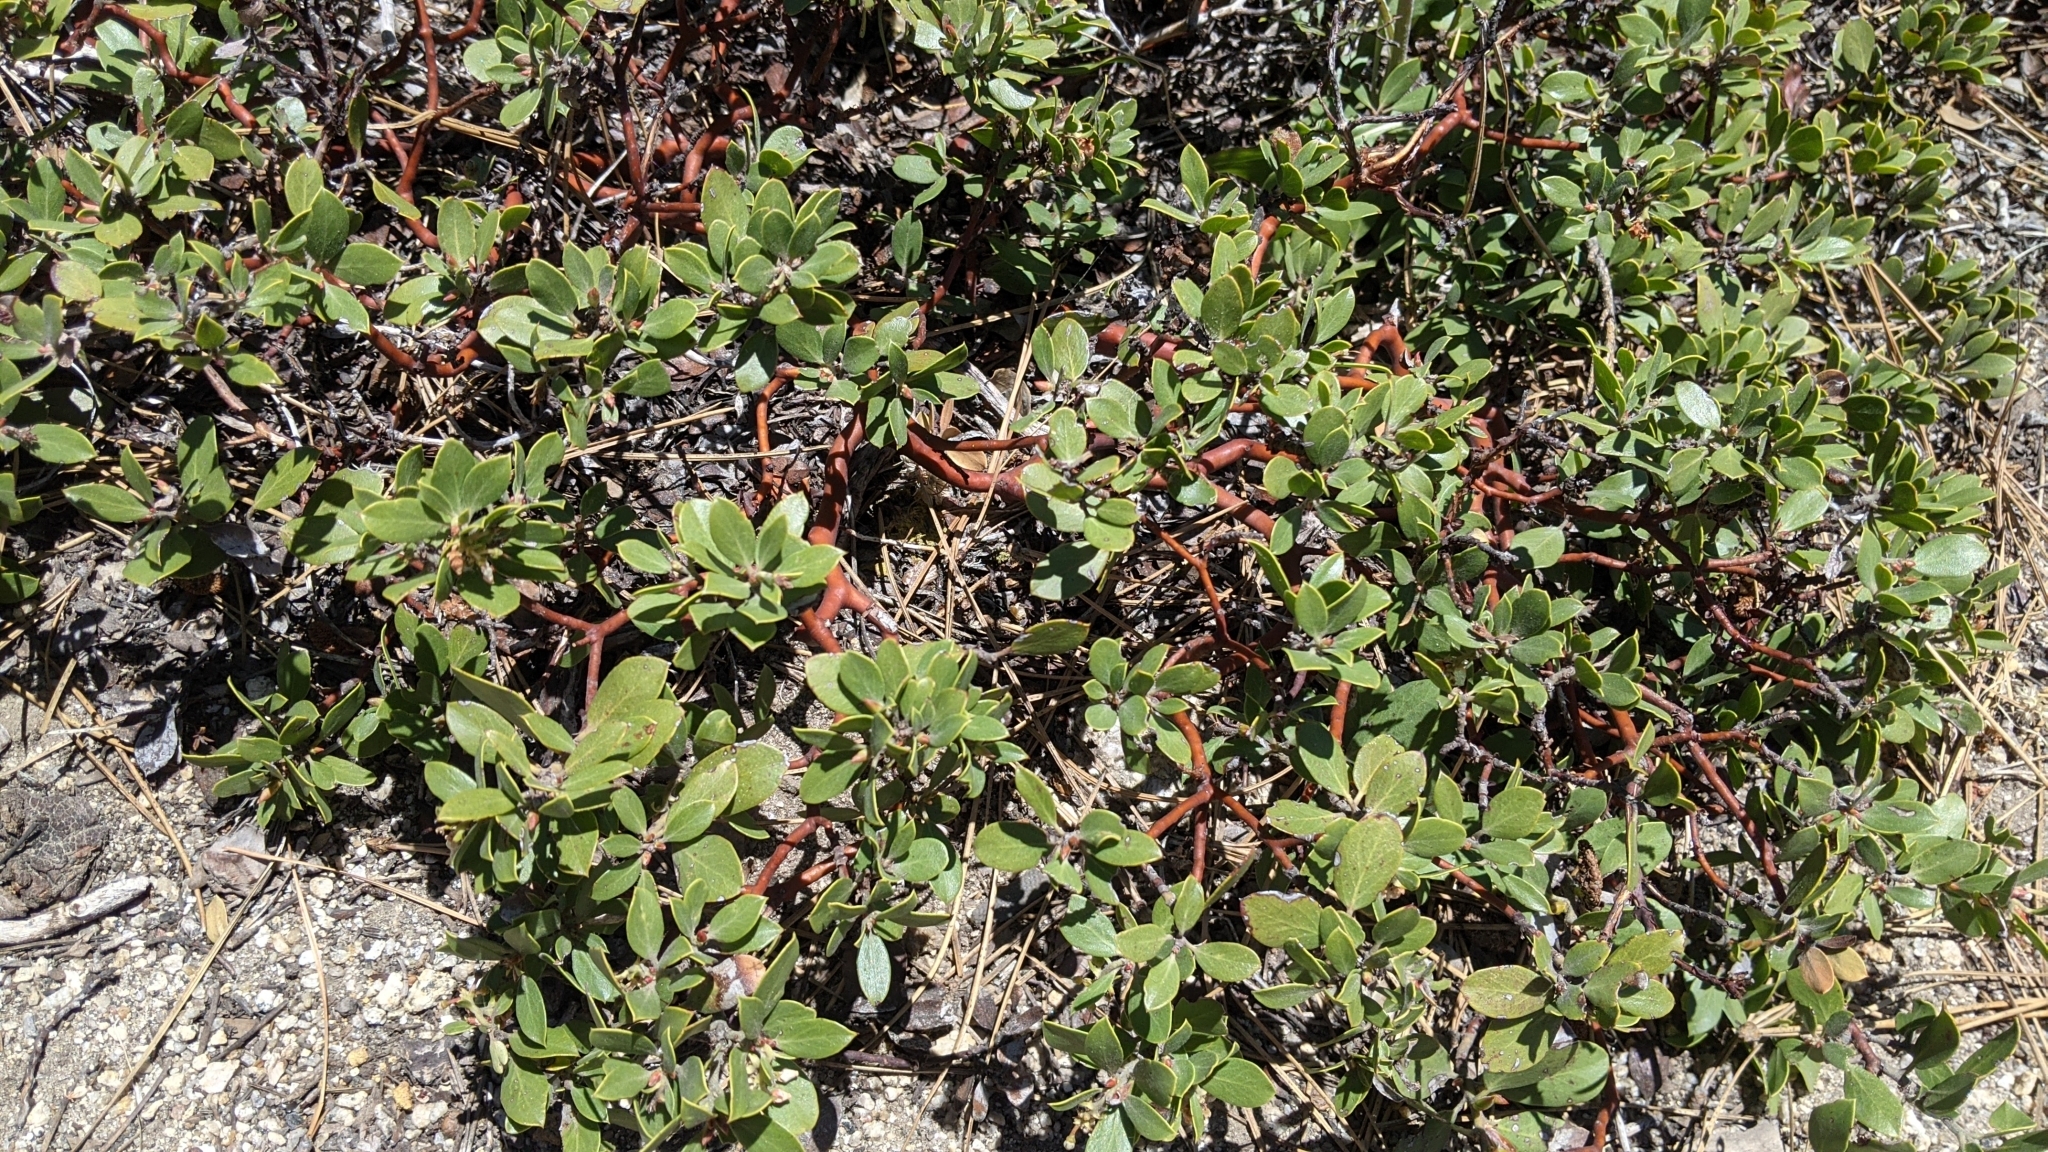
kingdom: Plantae
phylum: Tracheophyta
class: Magnoliopsida
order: Ericales
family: Ericaceae
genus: Arctostaphylos
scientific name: Arctostaphylos nevadensis
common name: Pinemat manzanita
